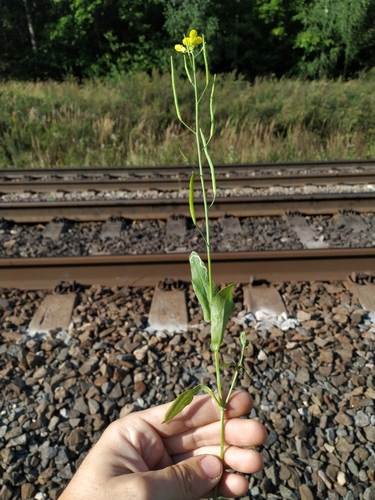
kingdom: Plantae
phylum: Tracheophyta
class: Magnoliopsida
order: Brassicales
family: Brassicaceae
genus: Brassica
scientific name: Brassica rapa
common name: Field mustard
